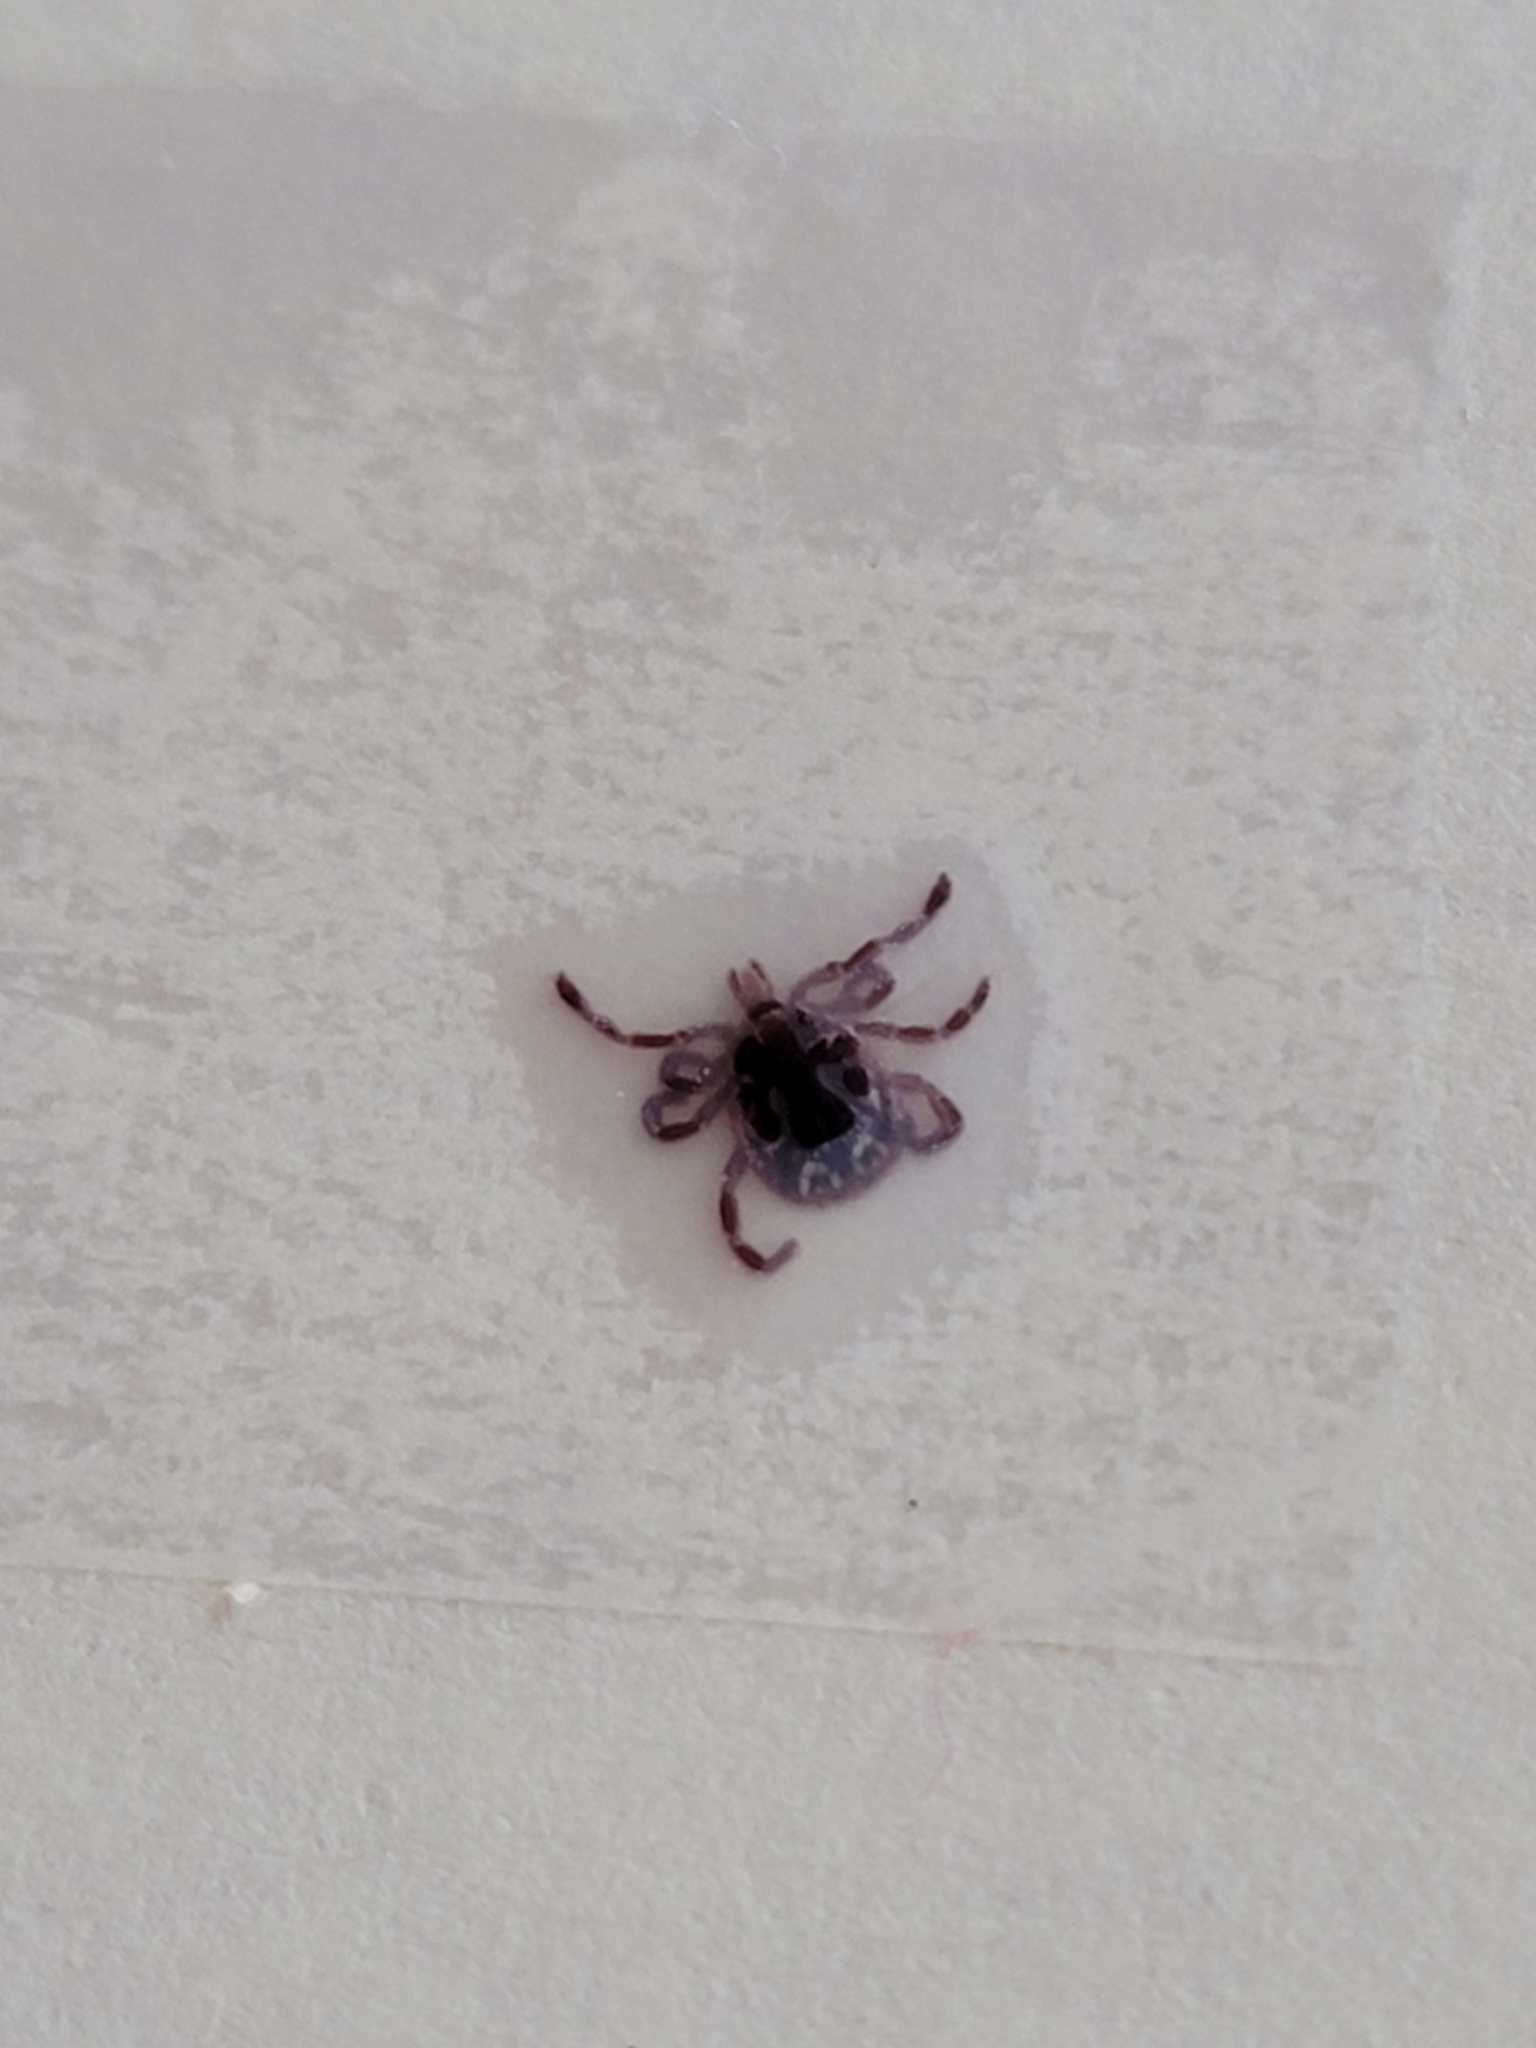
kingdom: Animalia
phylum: Arthropoda
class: Arachnida
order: Ixodida
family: Ixodidae
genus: Amblyomma
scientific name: Amblyomma americanum
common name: Lone star tick
